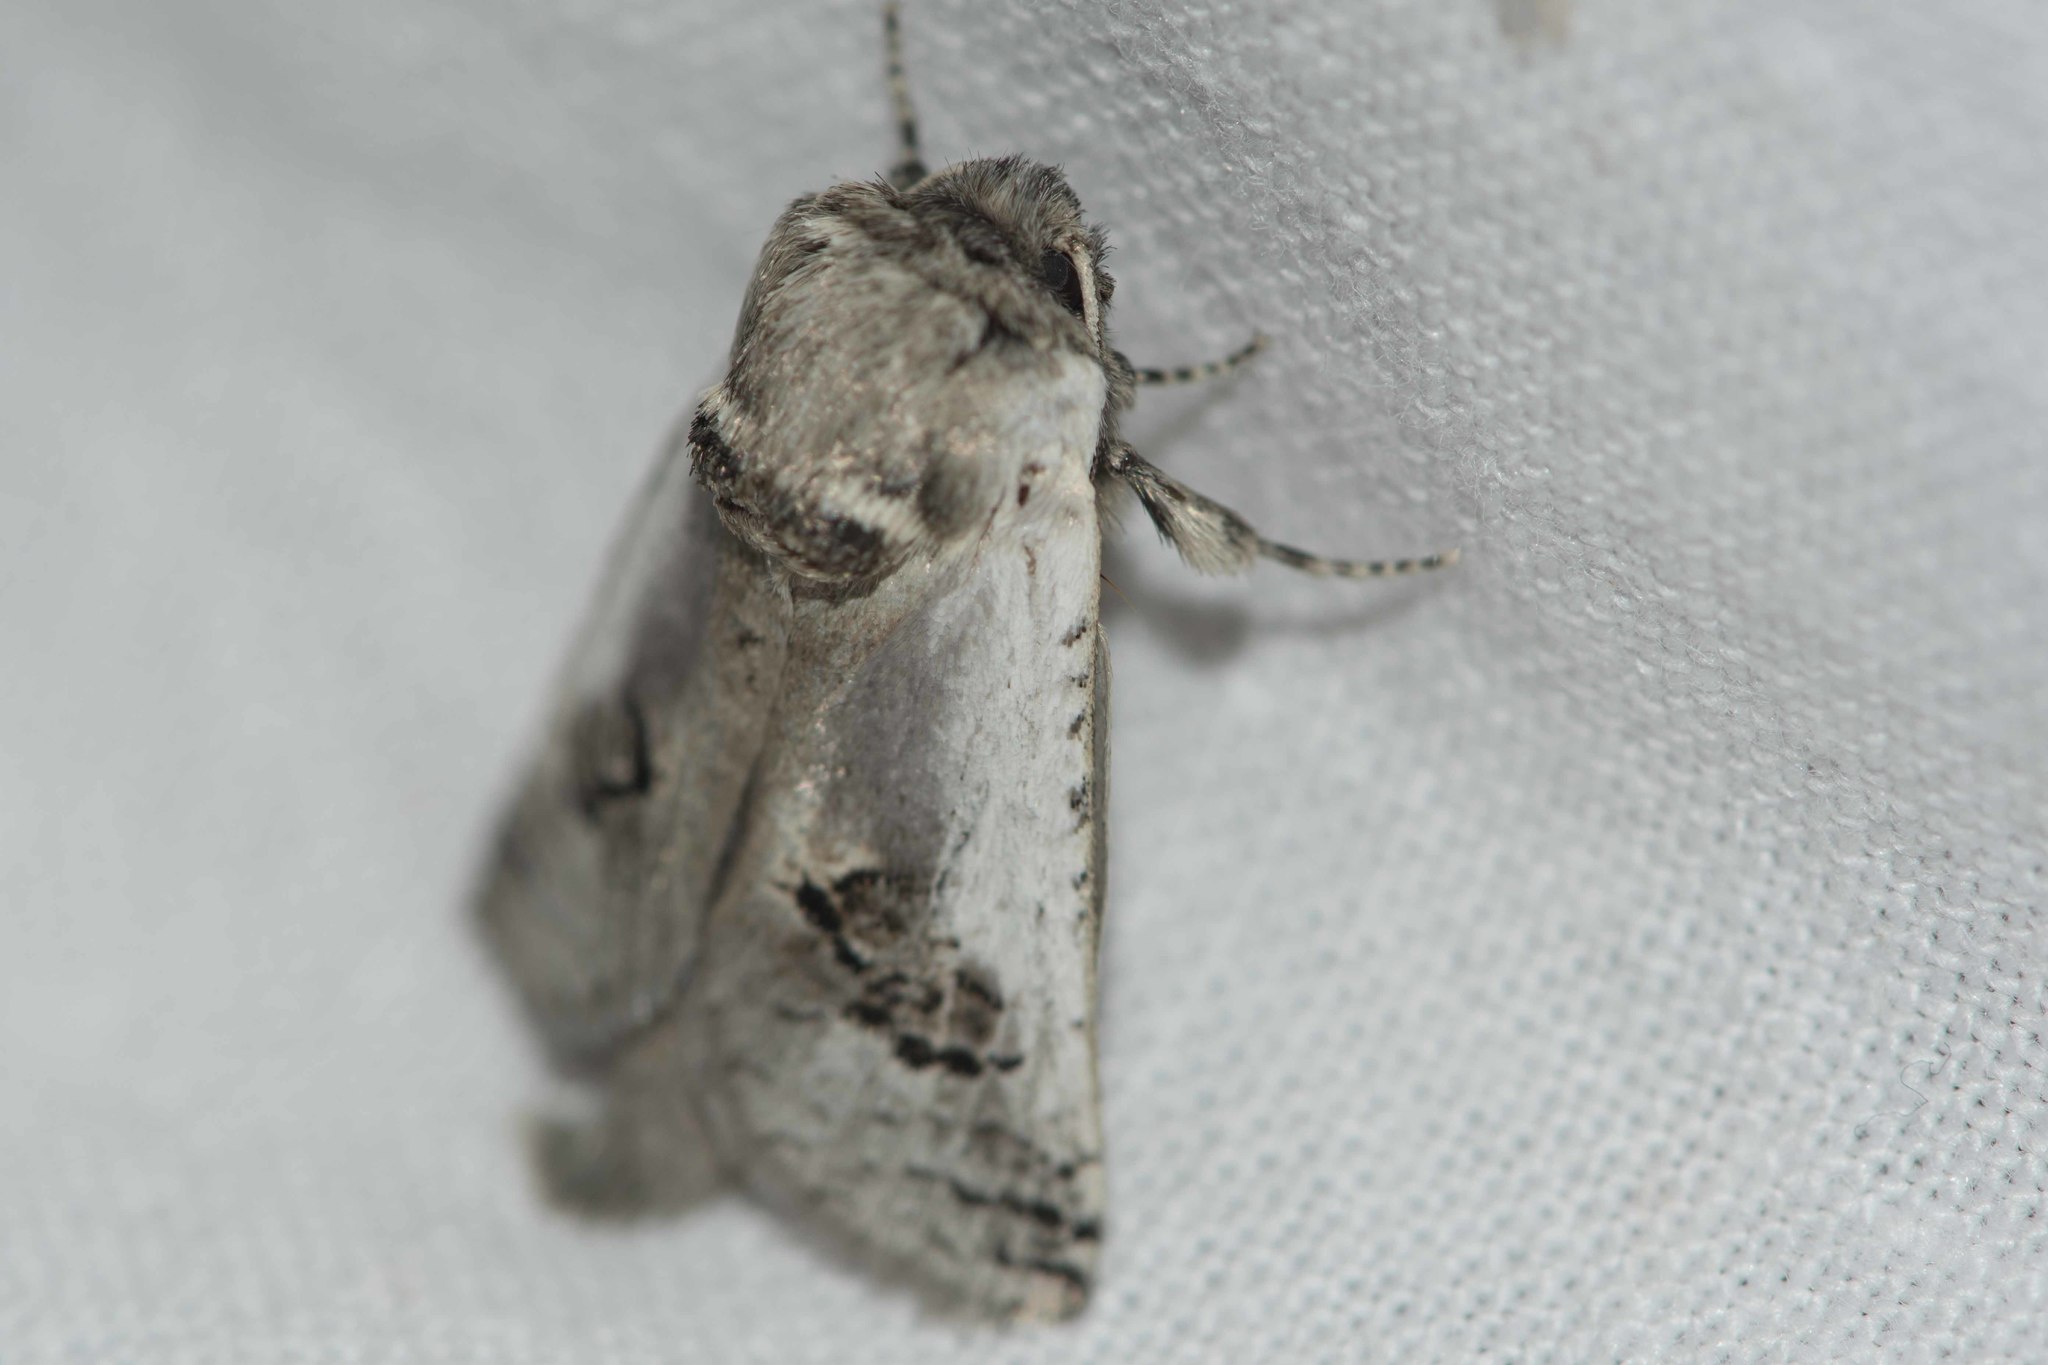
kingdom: Animalia
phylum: Arthropoda
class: Insecta
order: Lepidoptera
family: Cossidae
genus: Parahypopta
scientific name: Parahypopta caestrum
